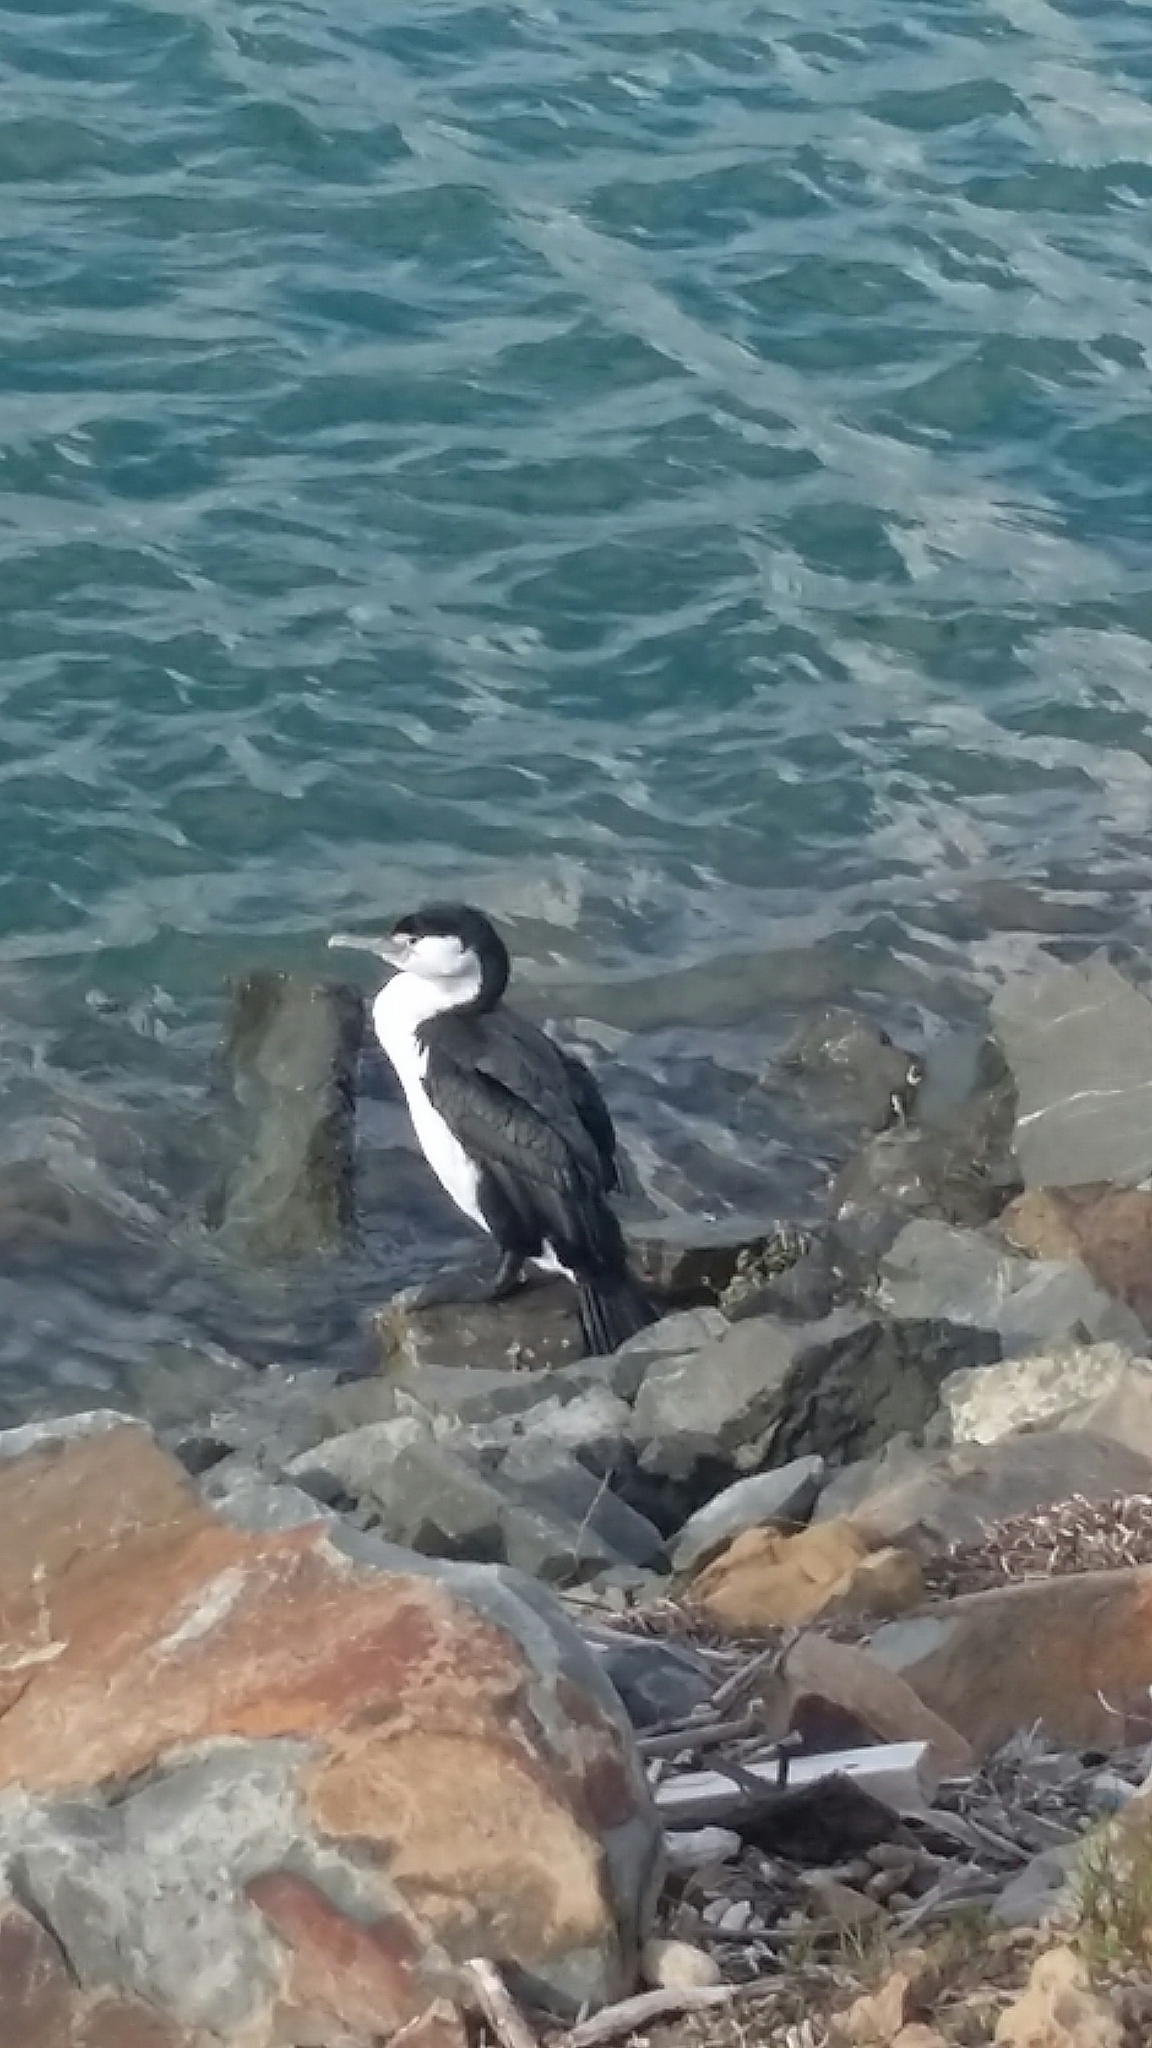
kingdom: Animalia
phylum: Chordata
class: Aves
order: Suliformes
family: Phalacrocoracidae
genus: Phalacrocorax
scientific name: Phalacrocorax varius
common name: Pied cormorant
